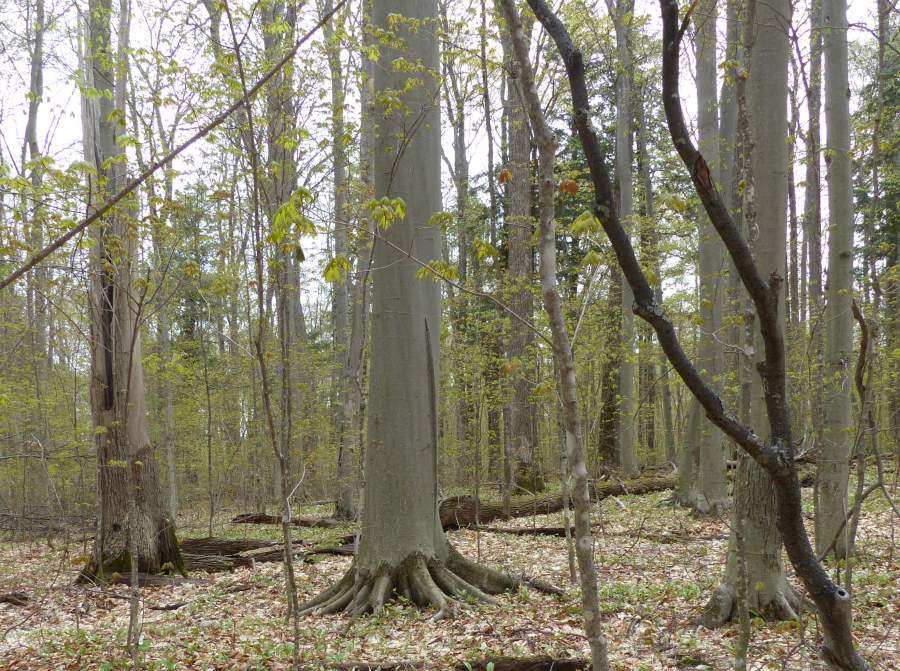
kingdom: Plantae
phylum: Tracheophyta
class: Magnoliopsida
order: Fagales
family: Fagaceae
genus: Fagus
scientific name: Fagus grandifolia
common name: American beech
